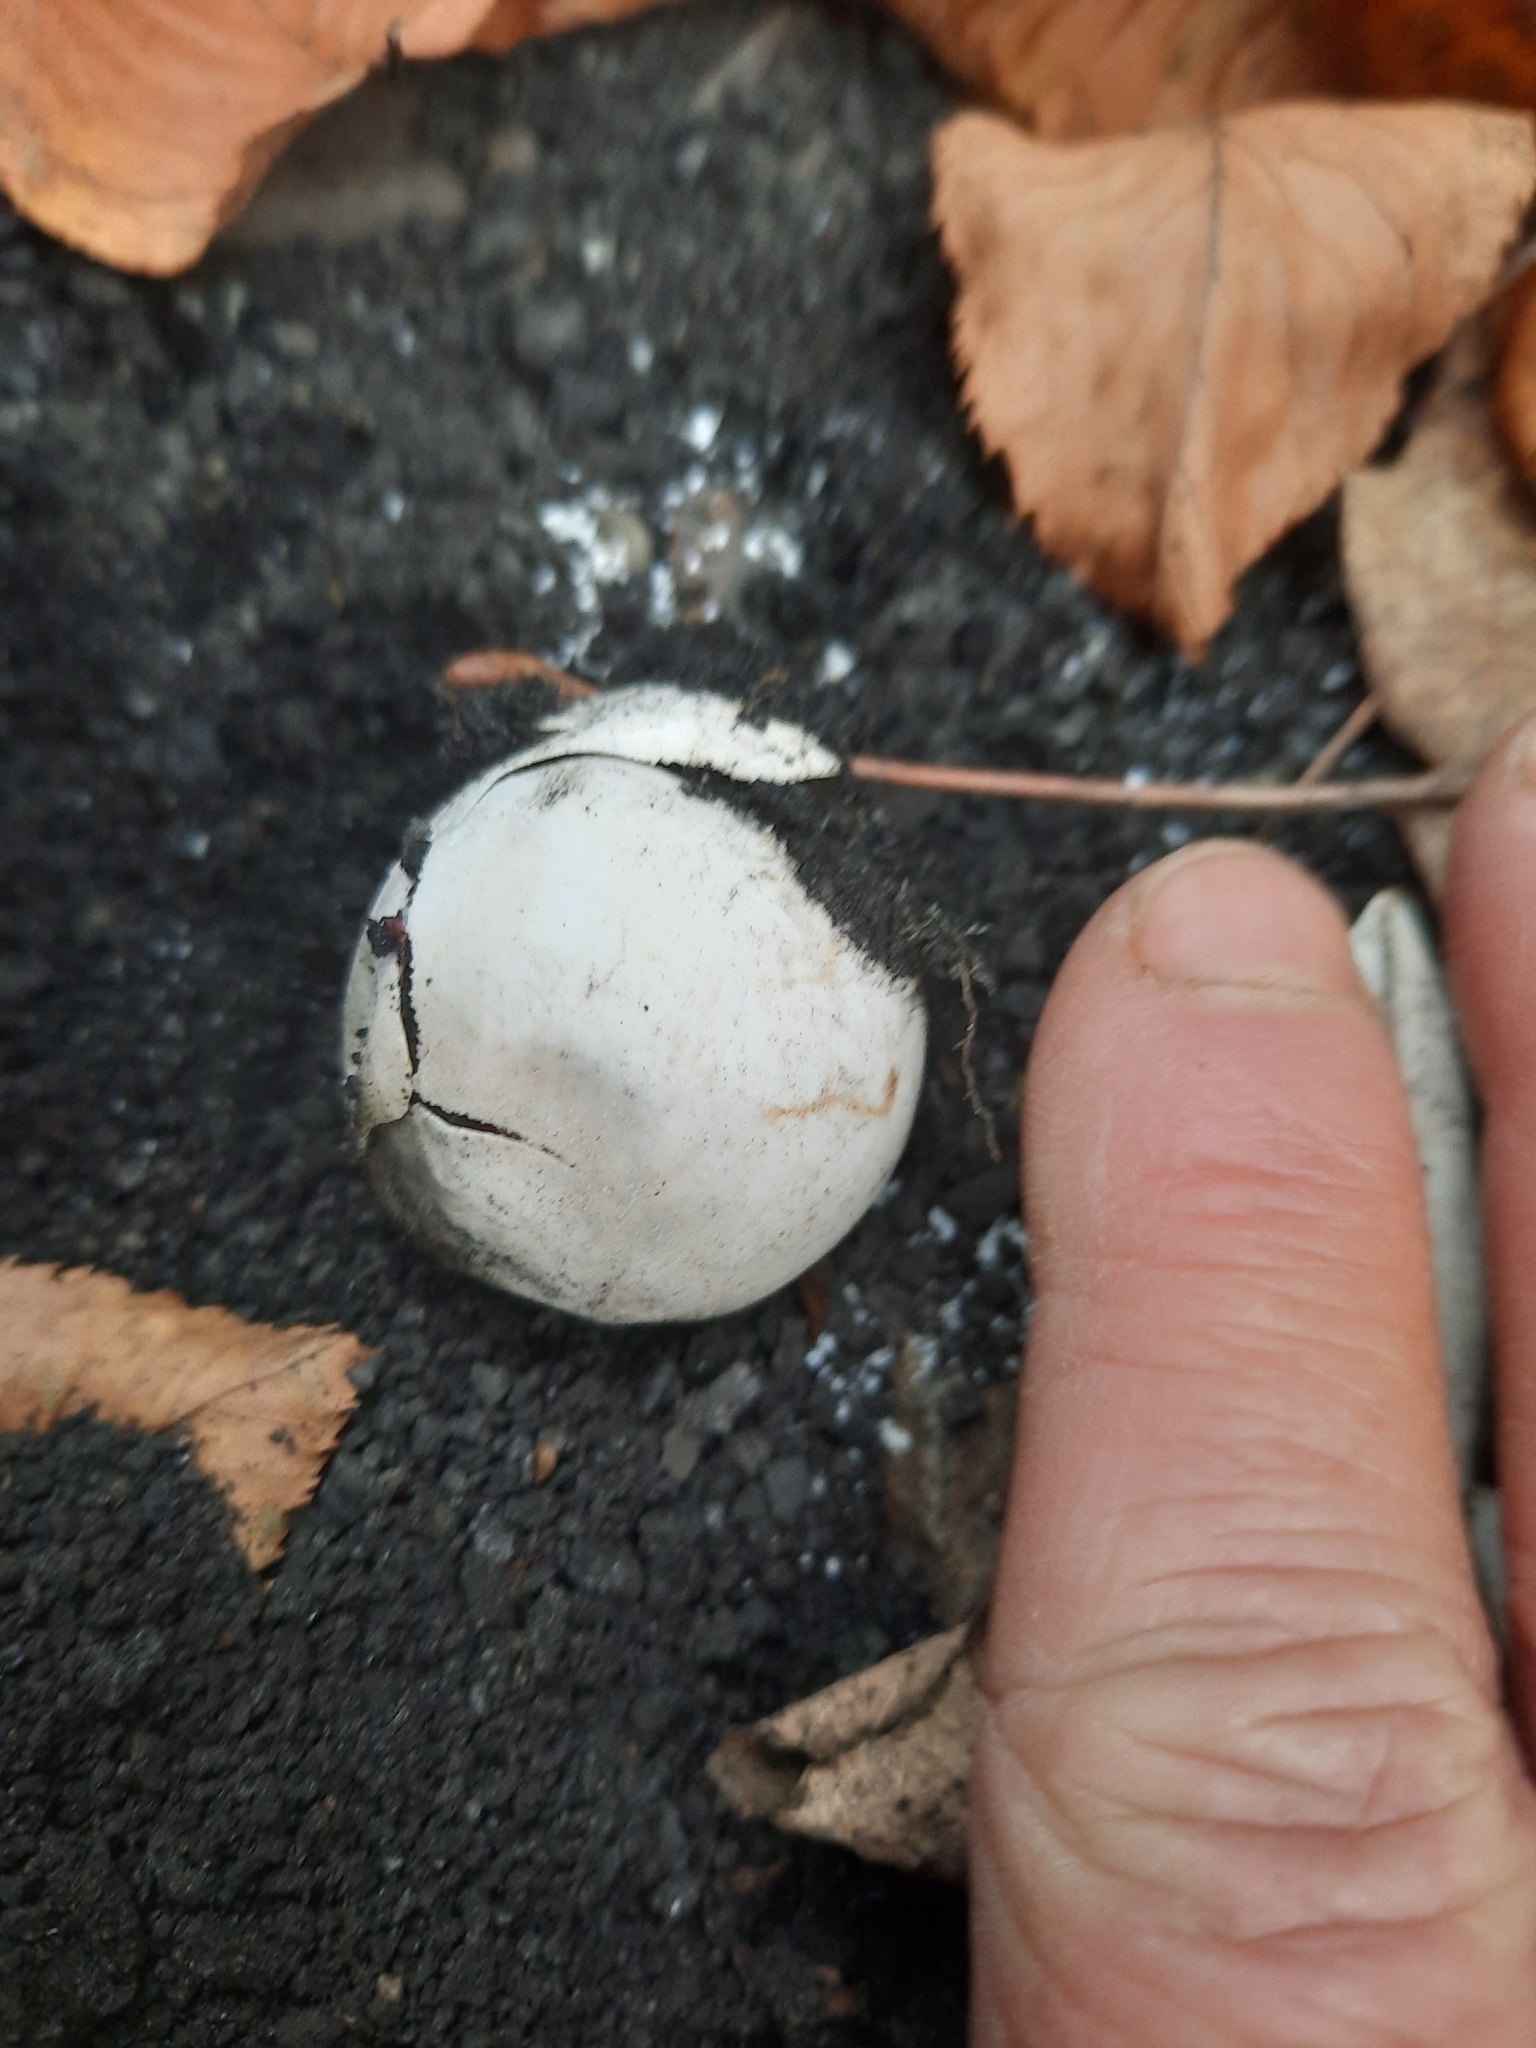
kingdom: Plantae
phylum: Tracheophyta
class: Magnoliopsida
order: Ranunculales
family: Ranunculaceae
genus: Clematis
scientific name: Clematis virginiana
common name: Virgin's-bower
